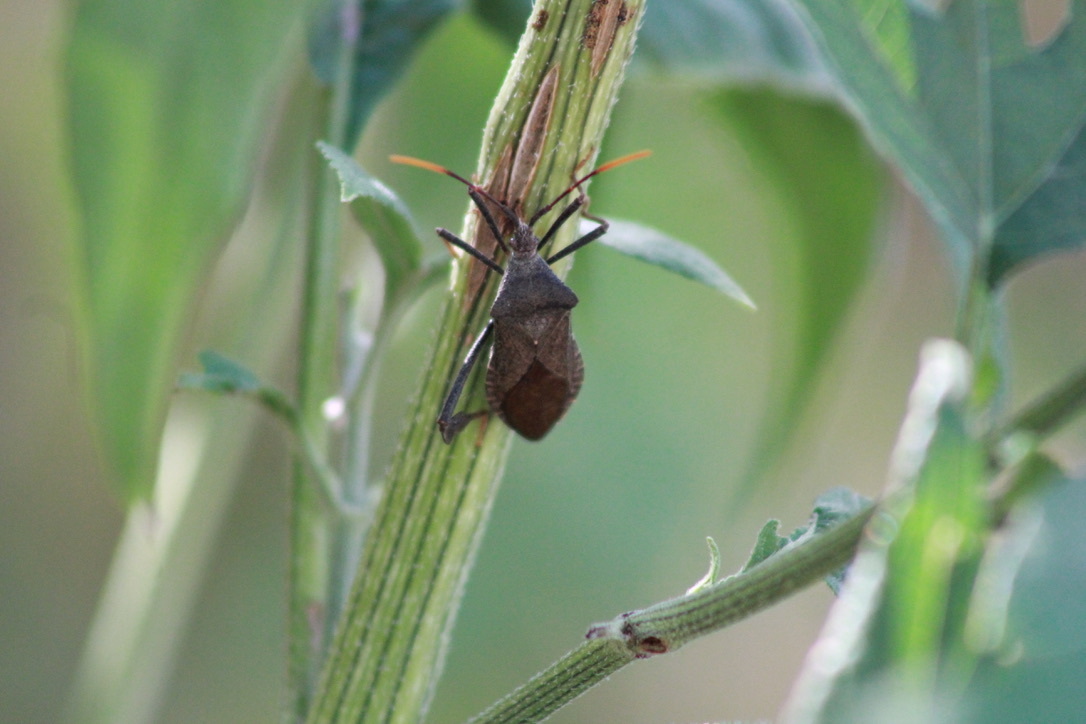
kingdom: Animalia
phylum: Arthropoda
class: Insecta
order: Hemiptera
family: Coreidae
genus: Acanthocephala
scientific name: Acanthocephala terminalis
